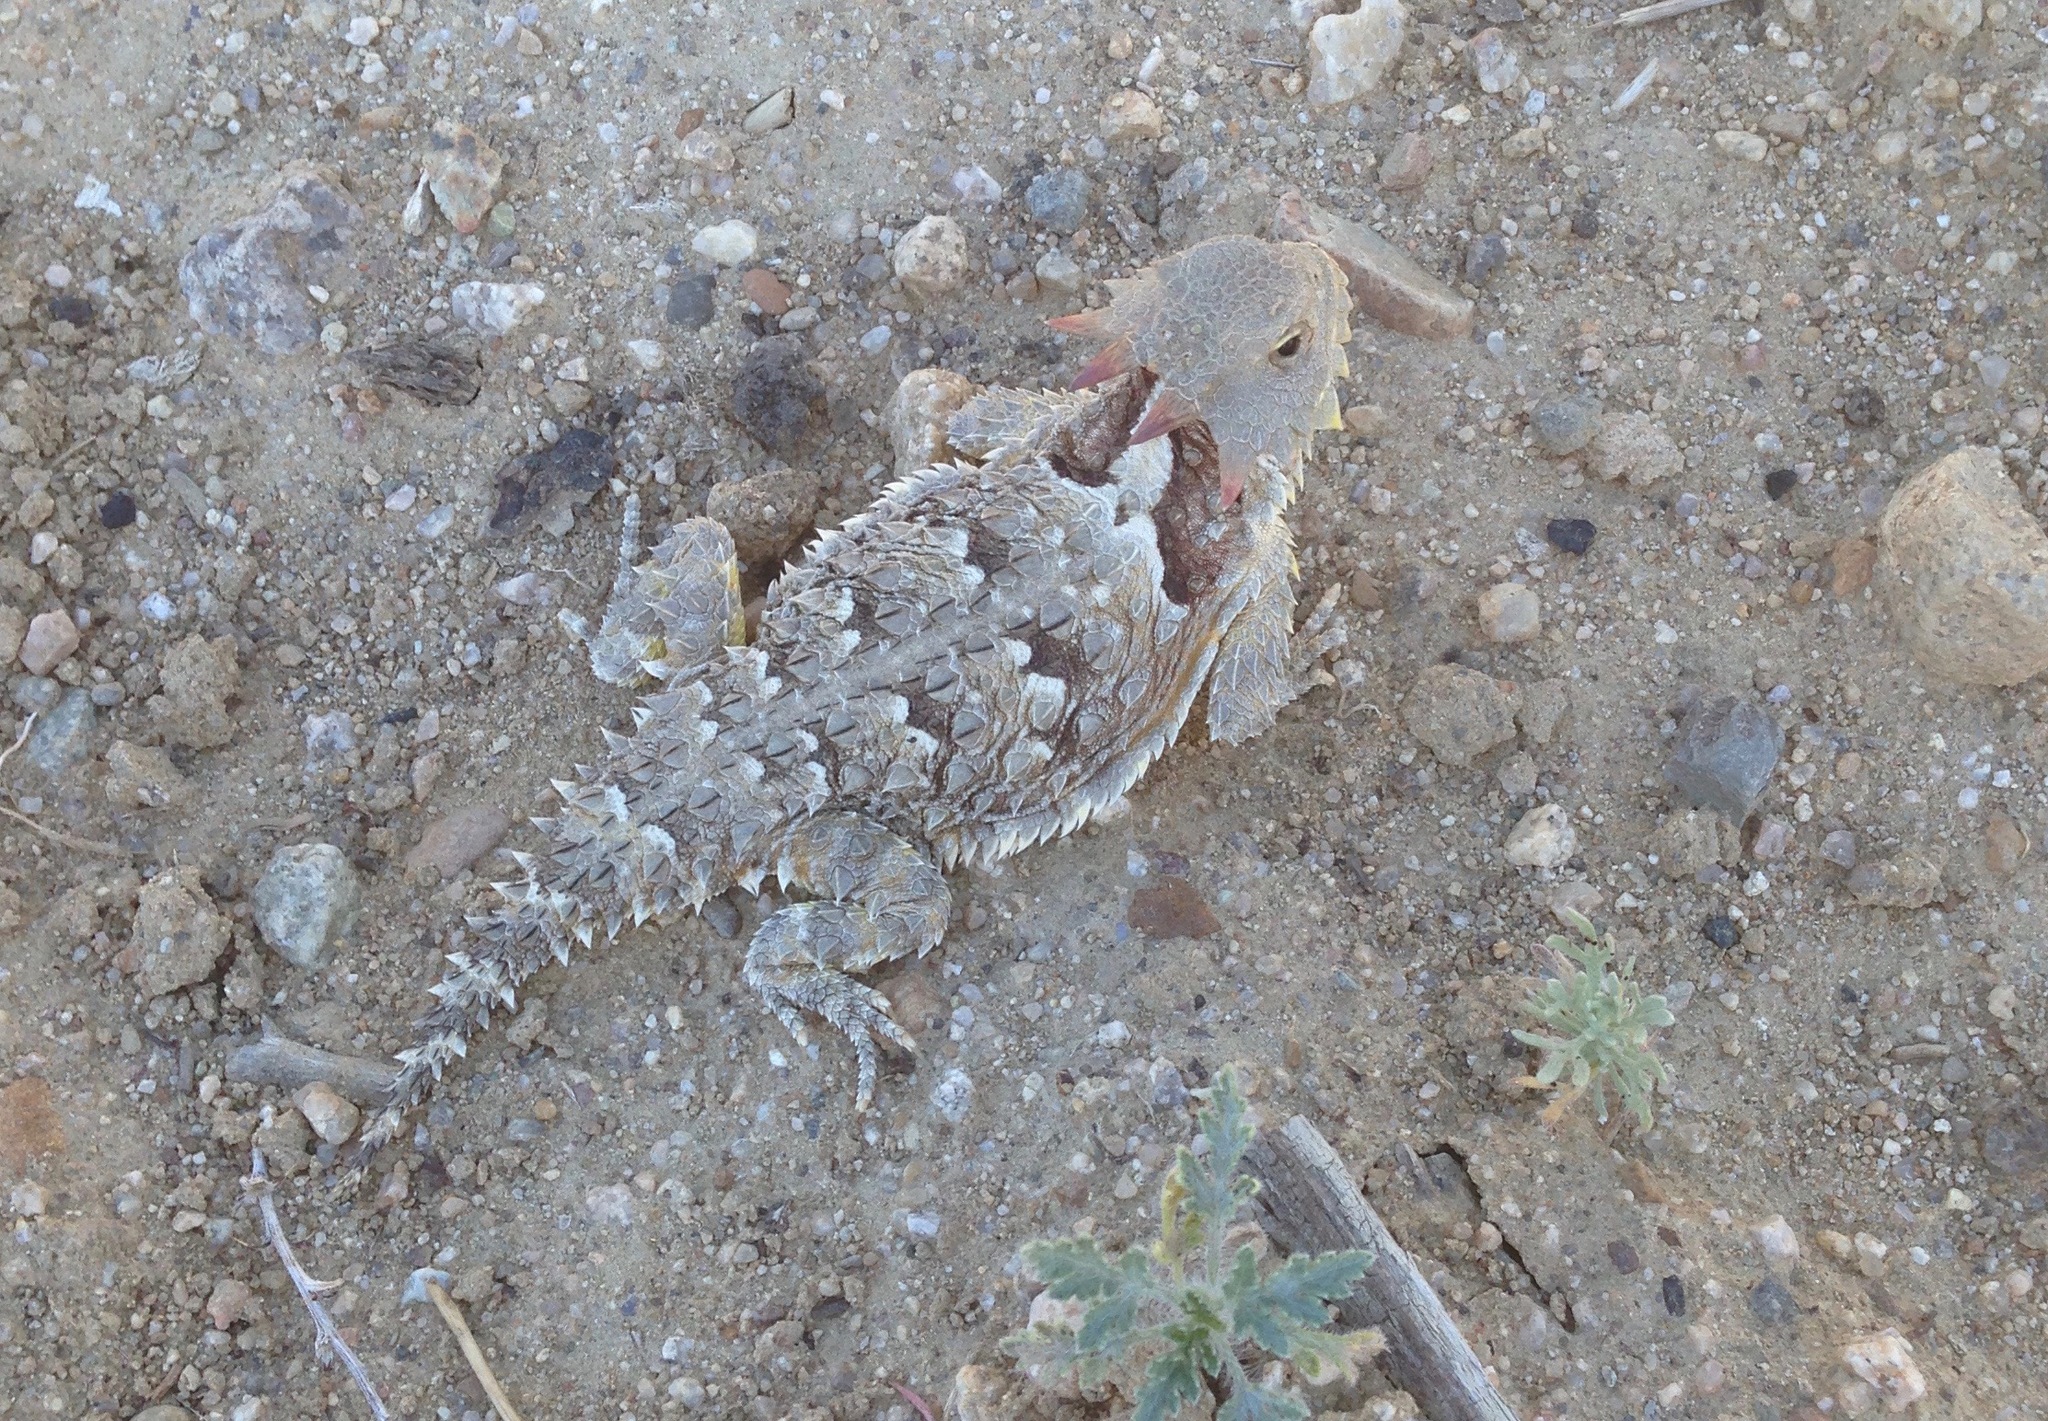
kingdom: Animalia
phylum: Chordata
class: Squamata
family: Phrynosomatidae
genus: Phrynosoma
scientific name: Phrynosoma blainvillii
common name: San diego horned lizard
